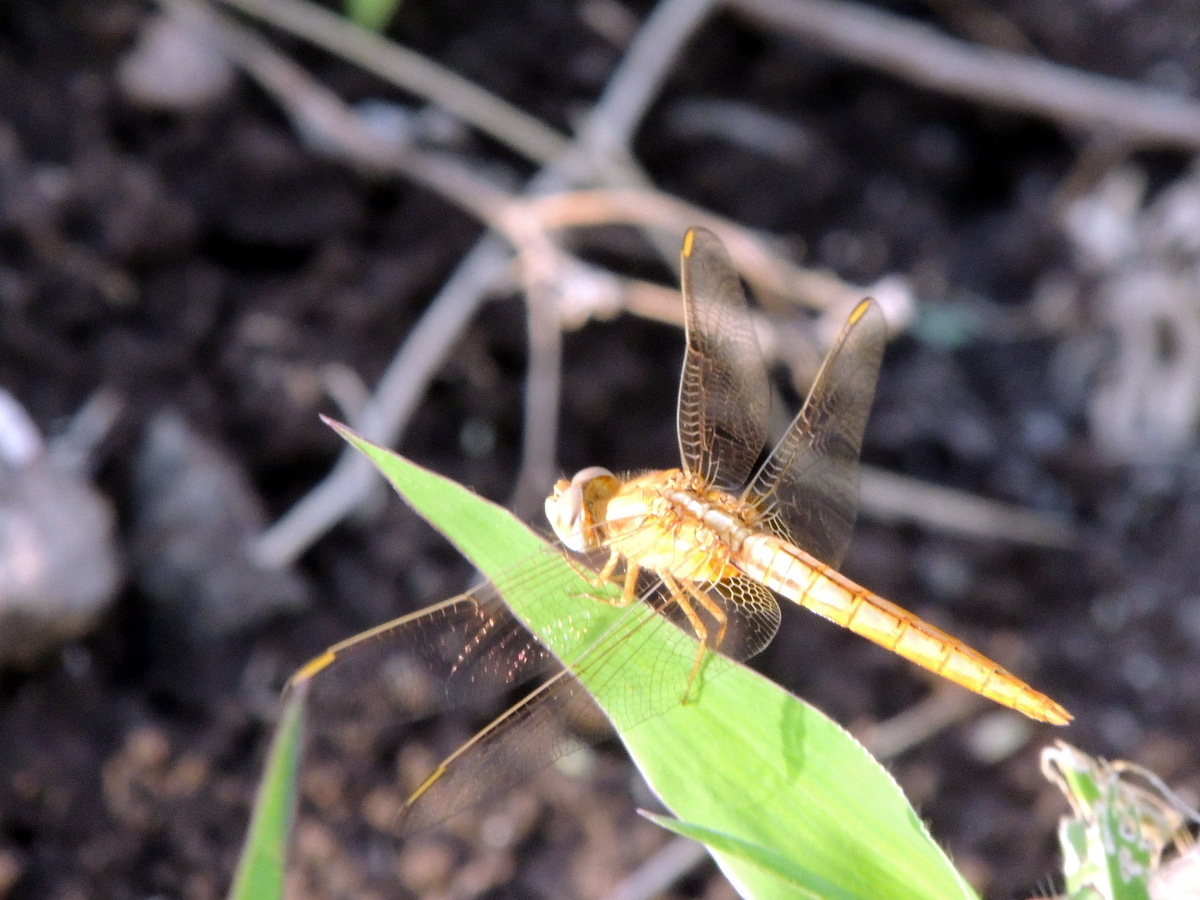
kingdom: Animalia
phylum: Arthropoda
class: Insecta
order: Odonata
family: Libellulidae
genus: Brachythemis
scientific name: Brachythemis contaminata
